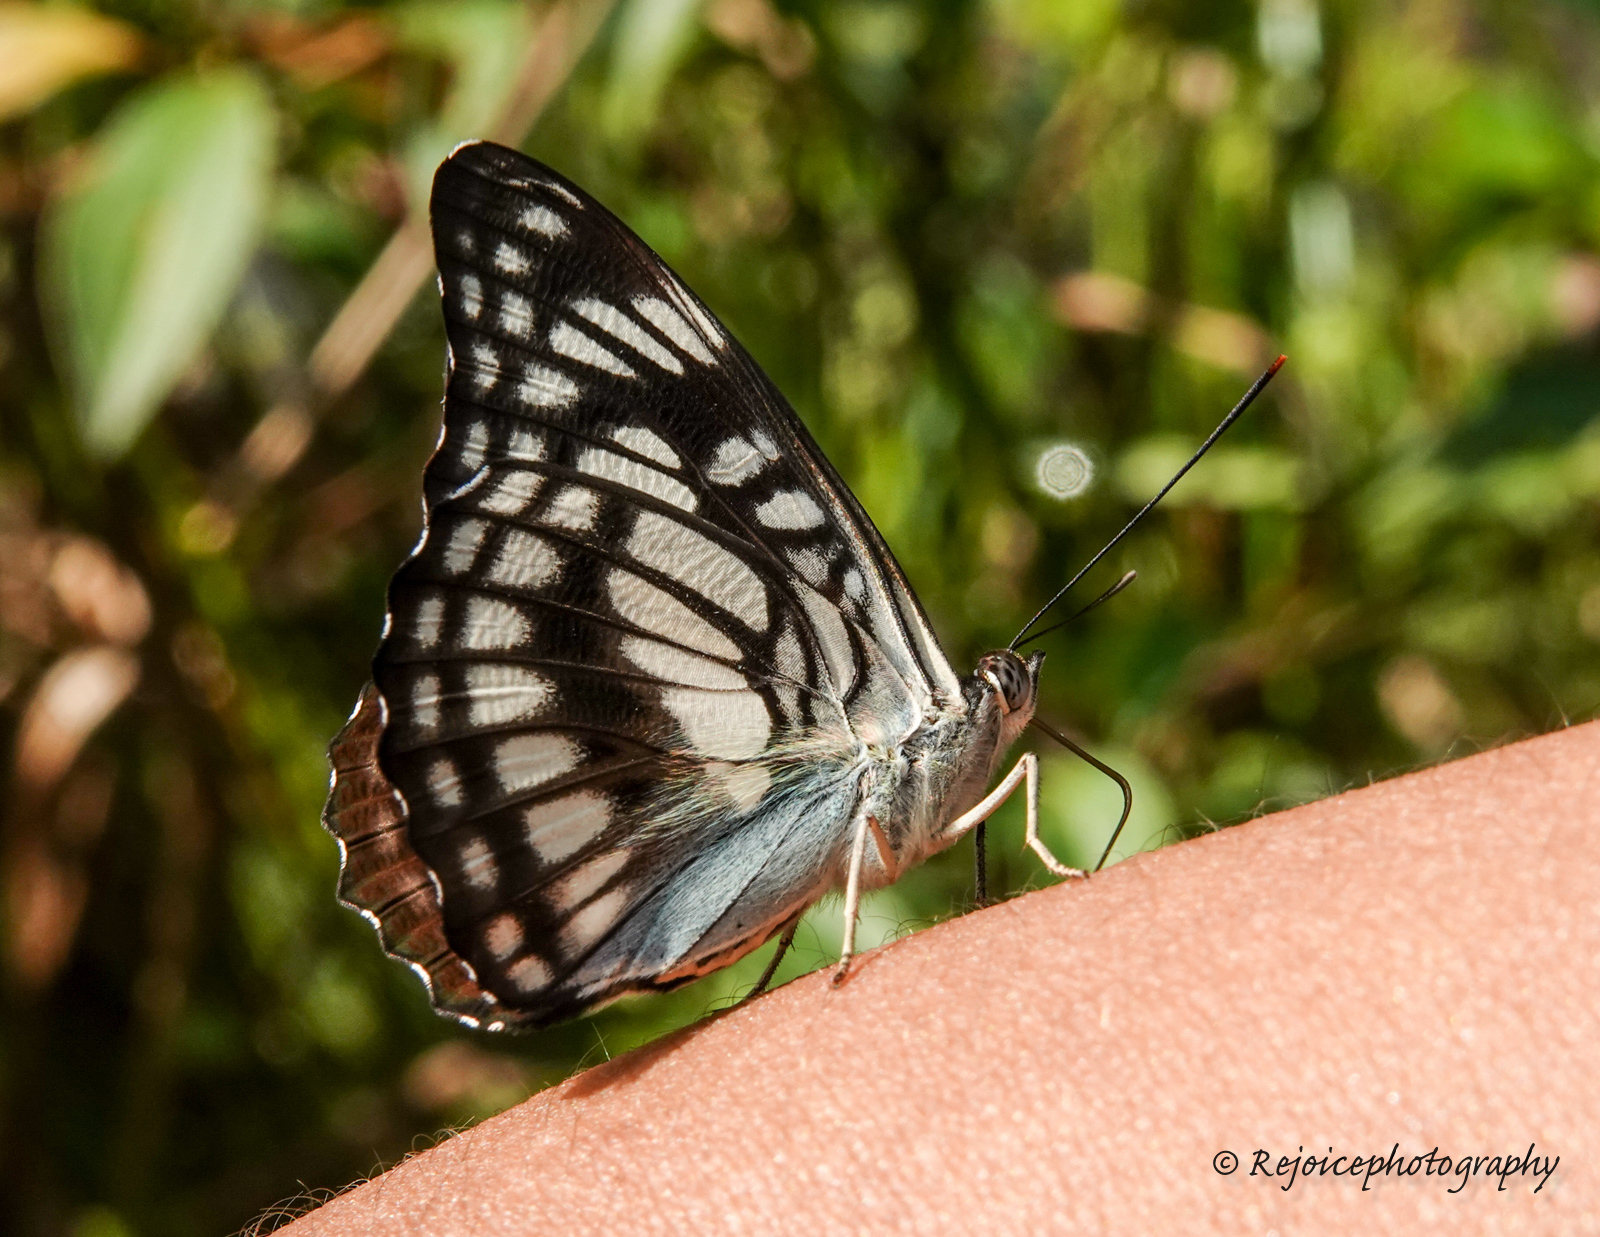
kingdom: Animalia
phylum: Arthropoda
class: Insecta
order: Lepidoptera
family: Nymphalidae
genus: Parathyma
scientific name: Parathyma ranga
